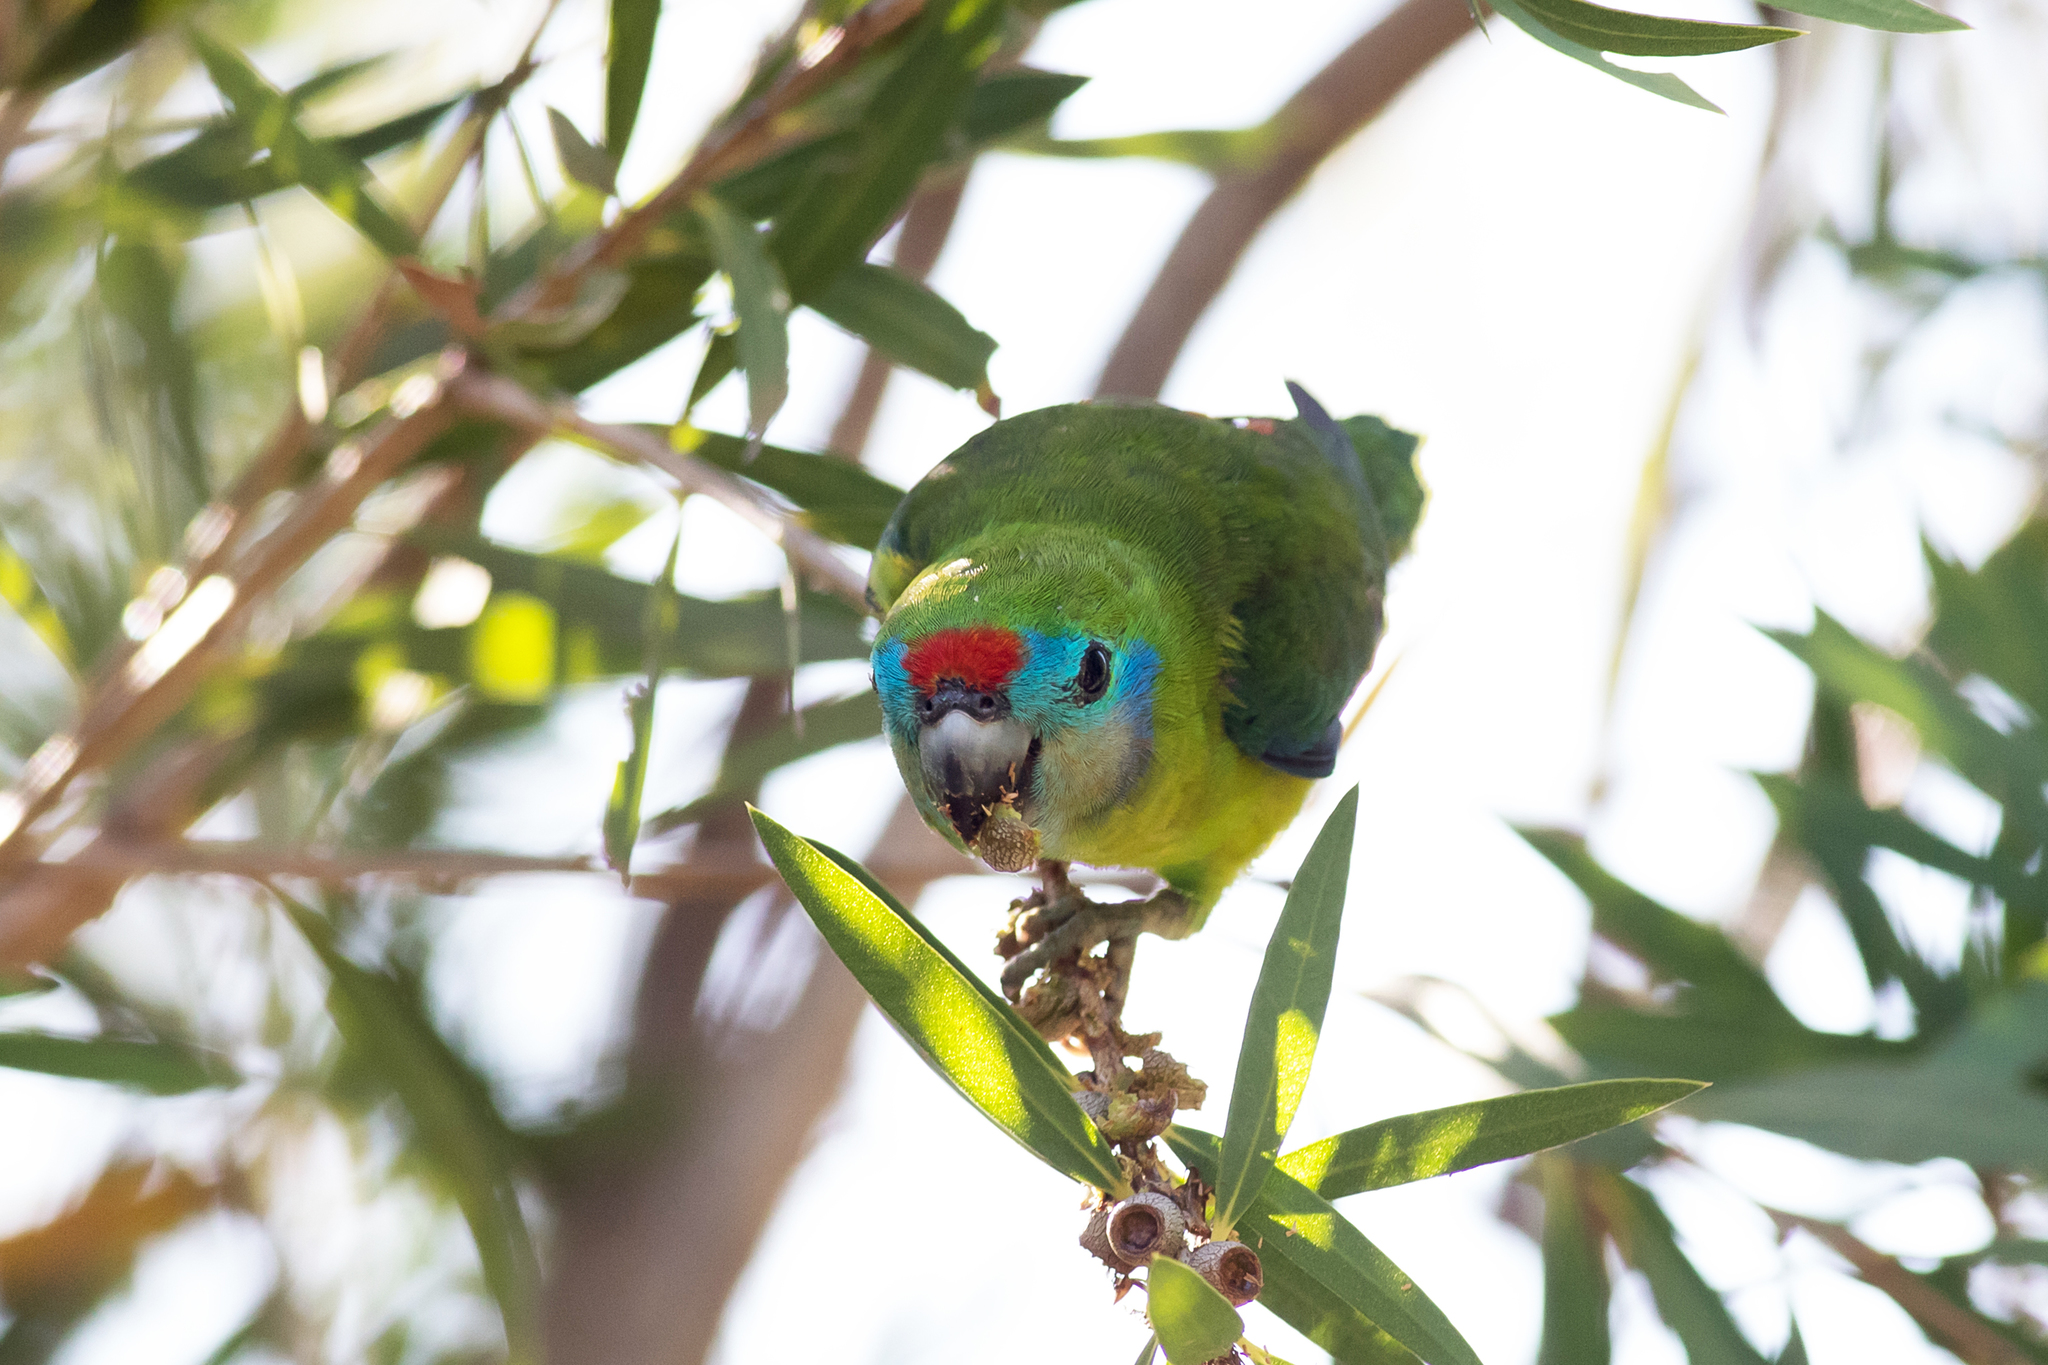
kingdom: Animalia
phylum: Chordata
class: Aves
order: Psittaciformes
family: Psittacidae
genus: Cyclopsitta
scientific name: Cyclopsitta diophthalma
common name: Double-eyed fig parrot
